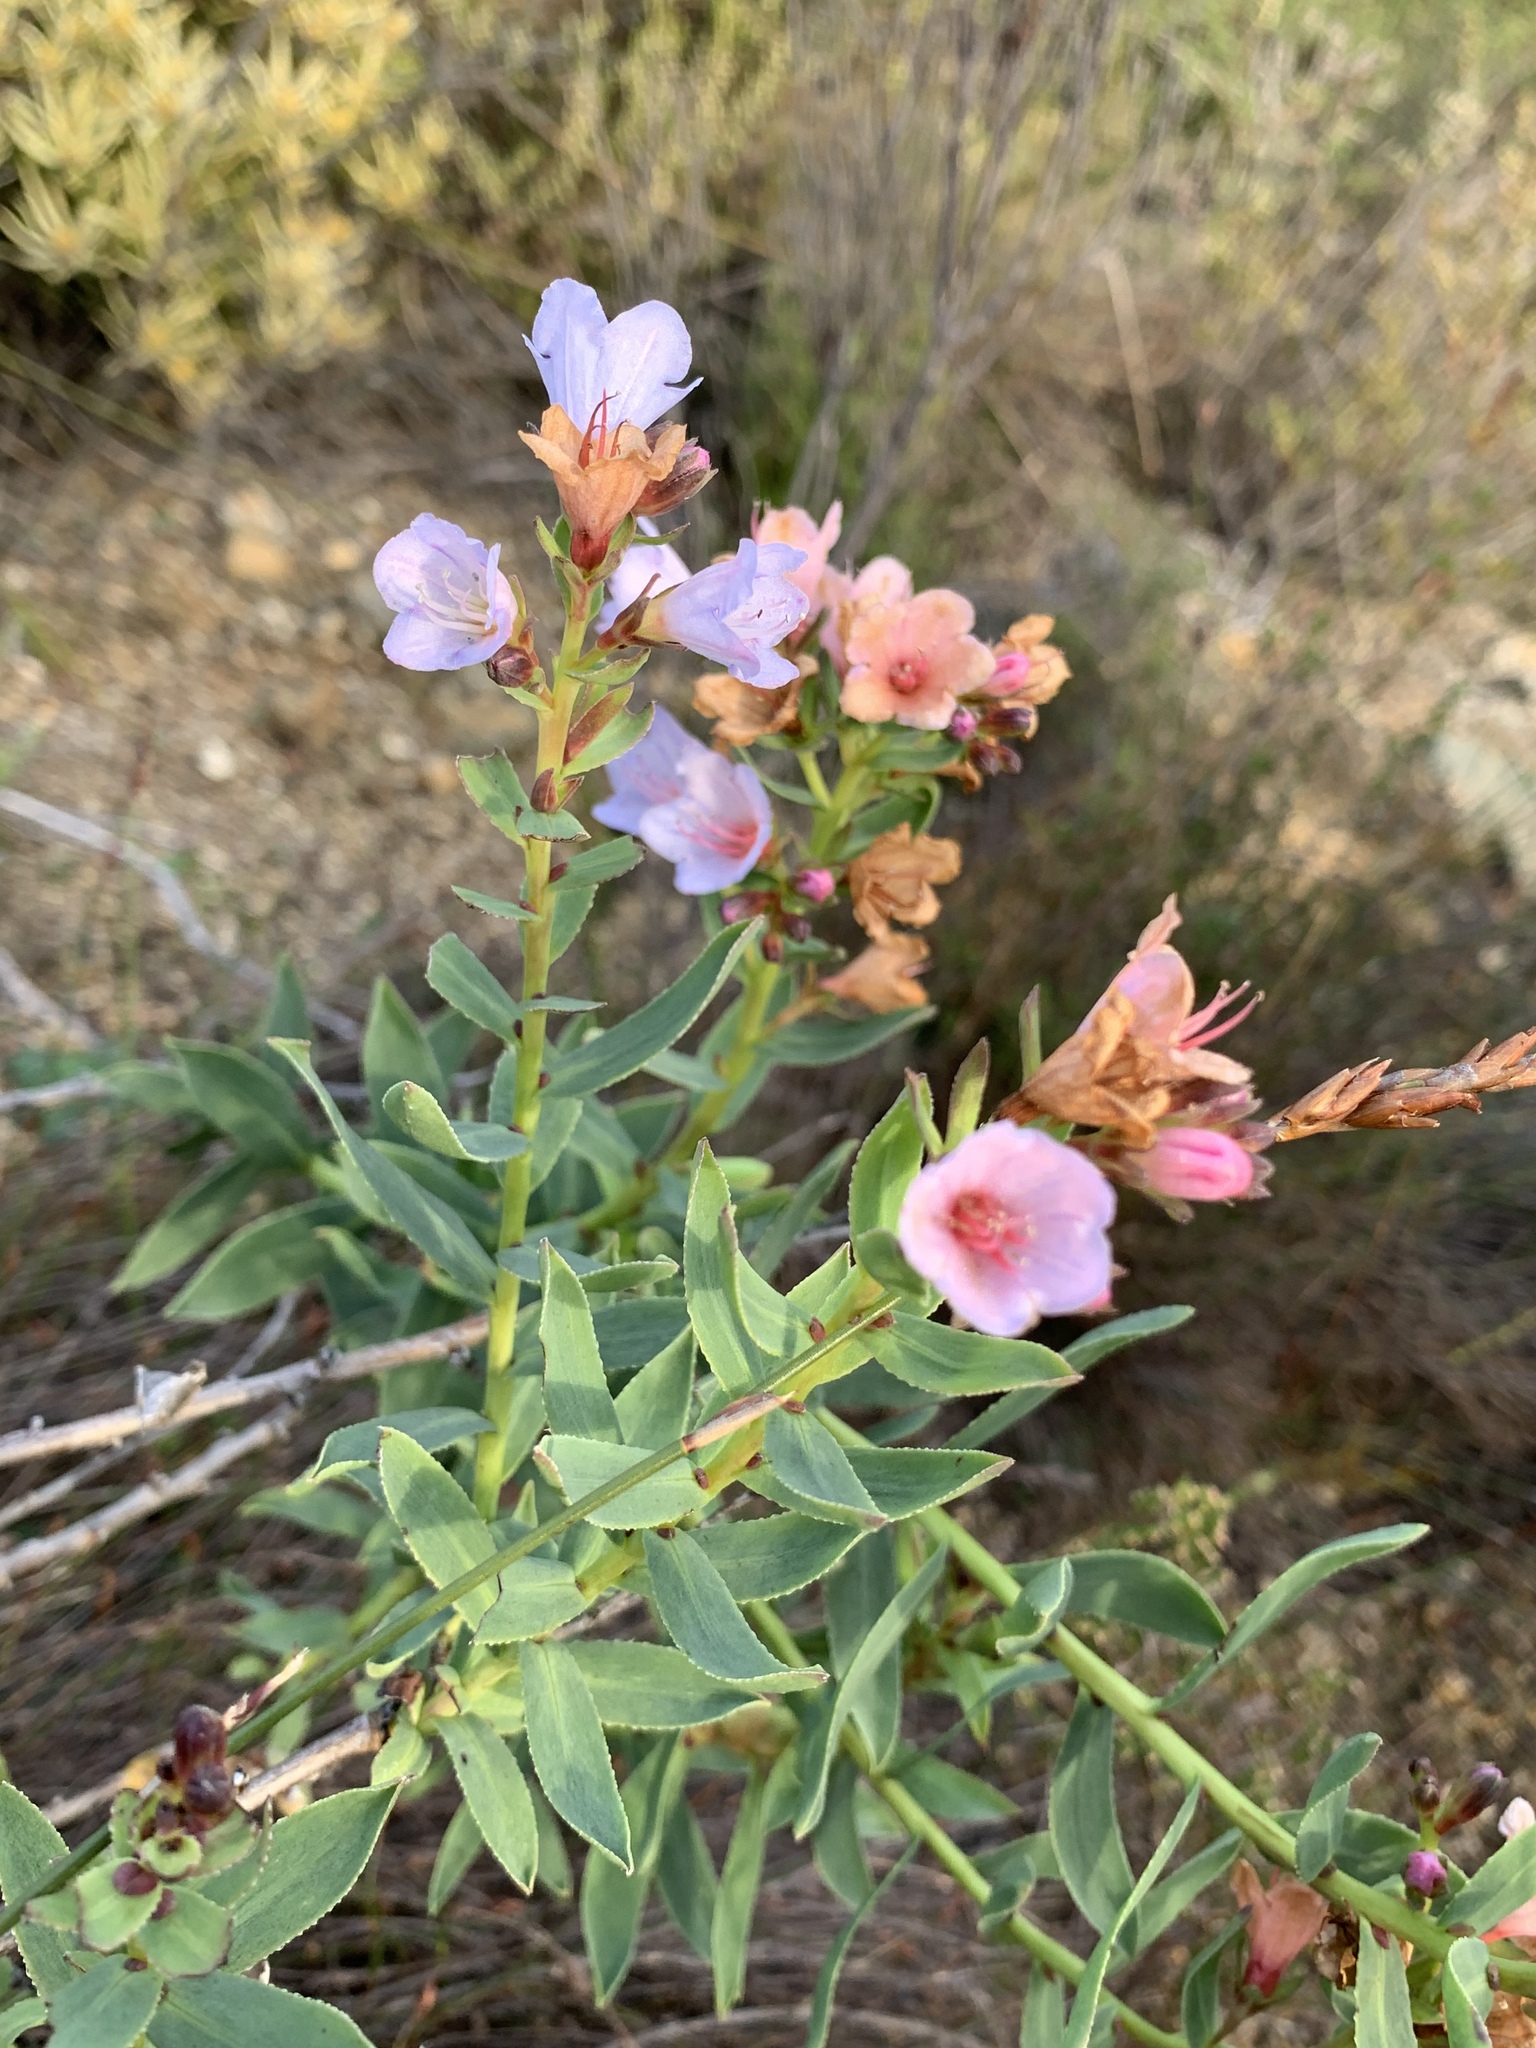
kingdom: Plantae
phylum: Tracheophyta
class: Magnoliopsida
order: Boraginales
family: Boraginaceae
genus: Lobostemon
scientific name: Lobostemon glaucophyllus
